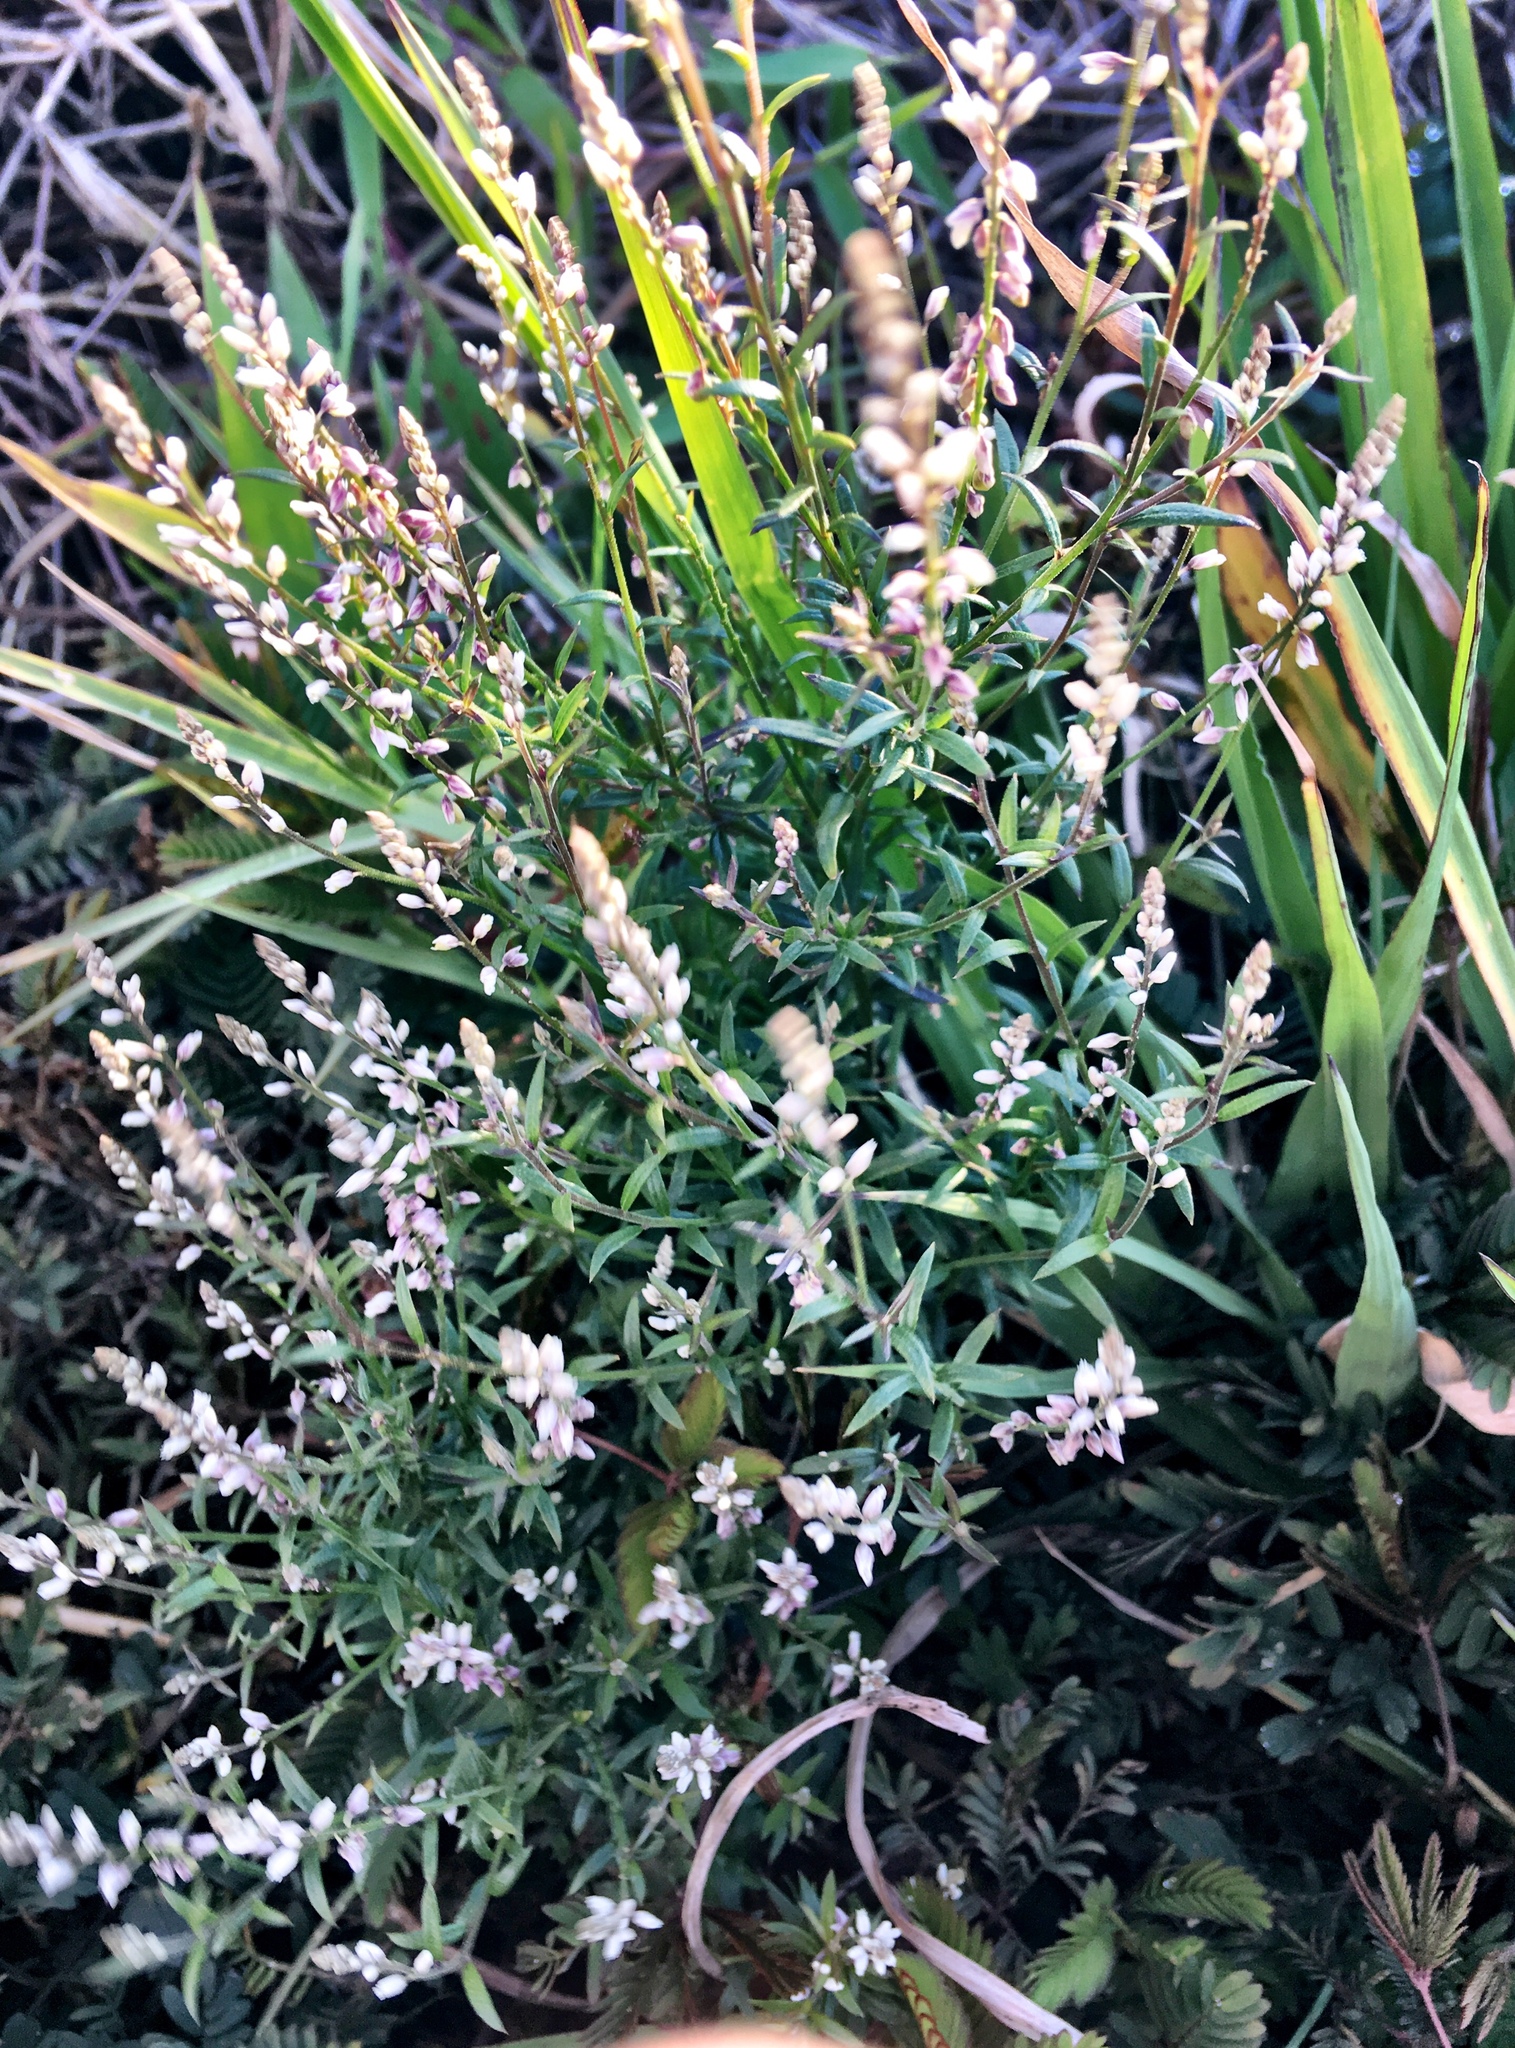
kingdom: Plantae
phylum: Tracheophyta
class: Magnoliopsida
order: Fabales
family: Polygalaceae
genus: Polygala
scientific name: Polygala paniculata
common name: Orosne
